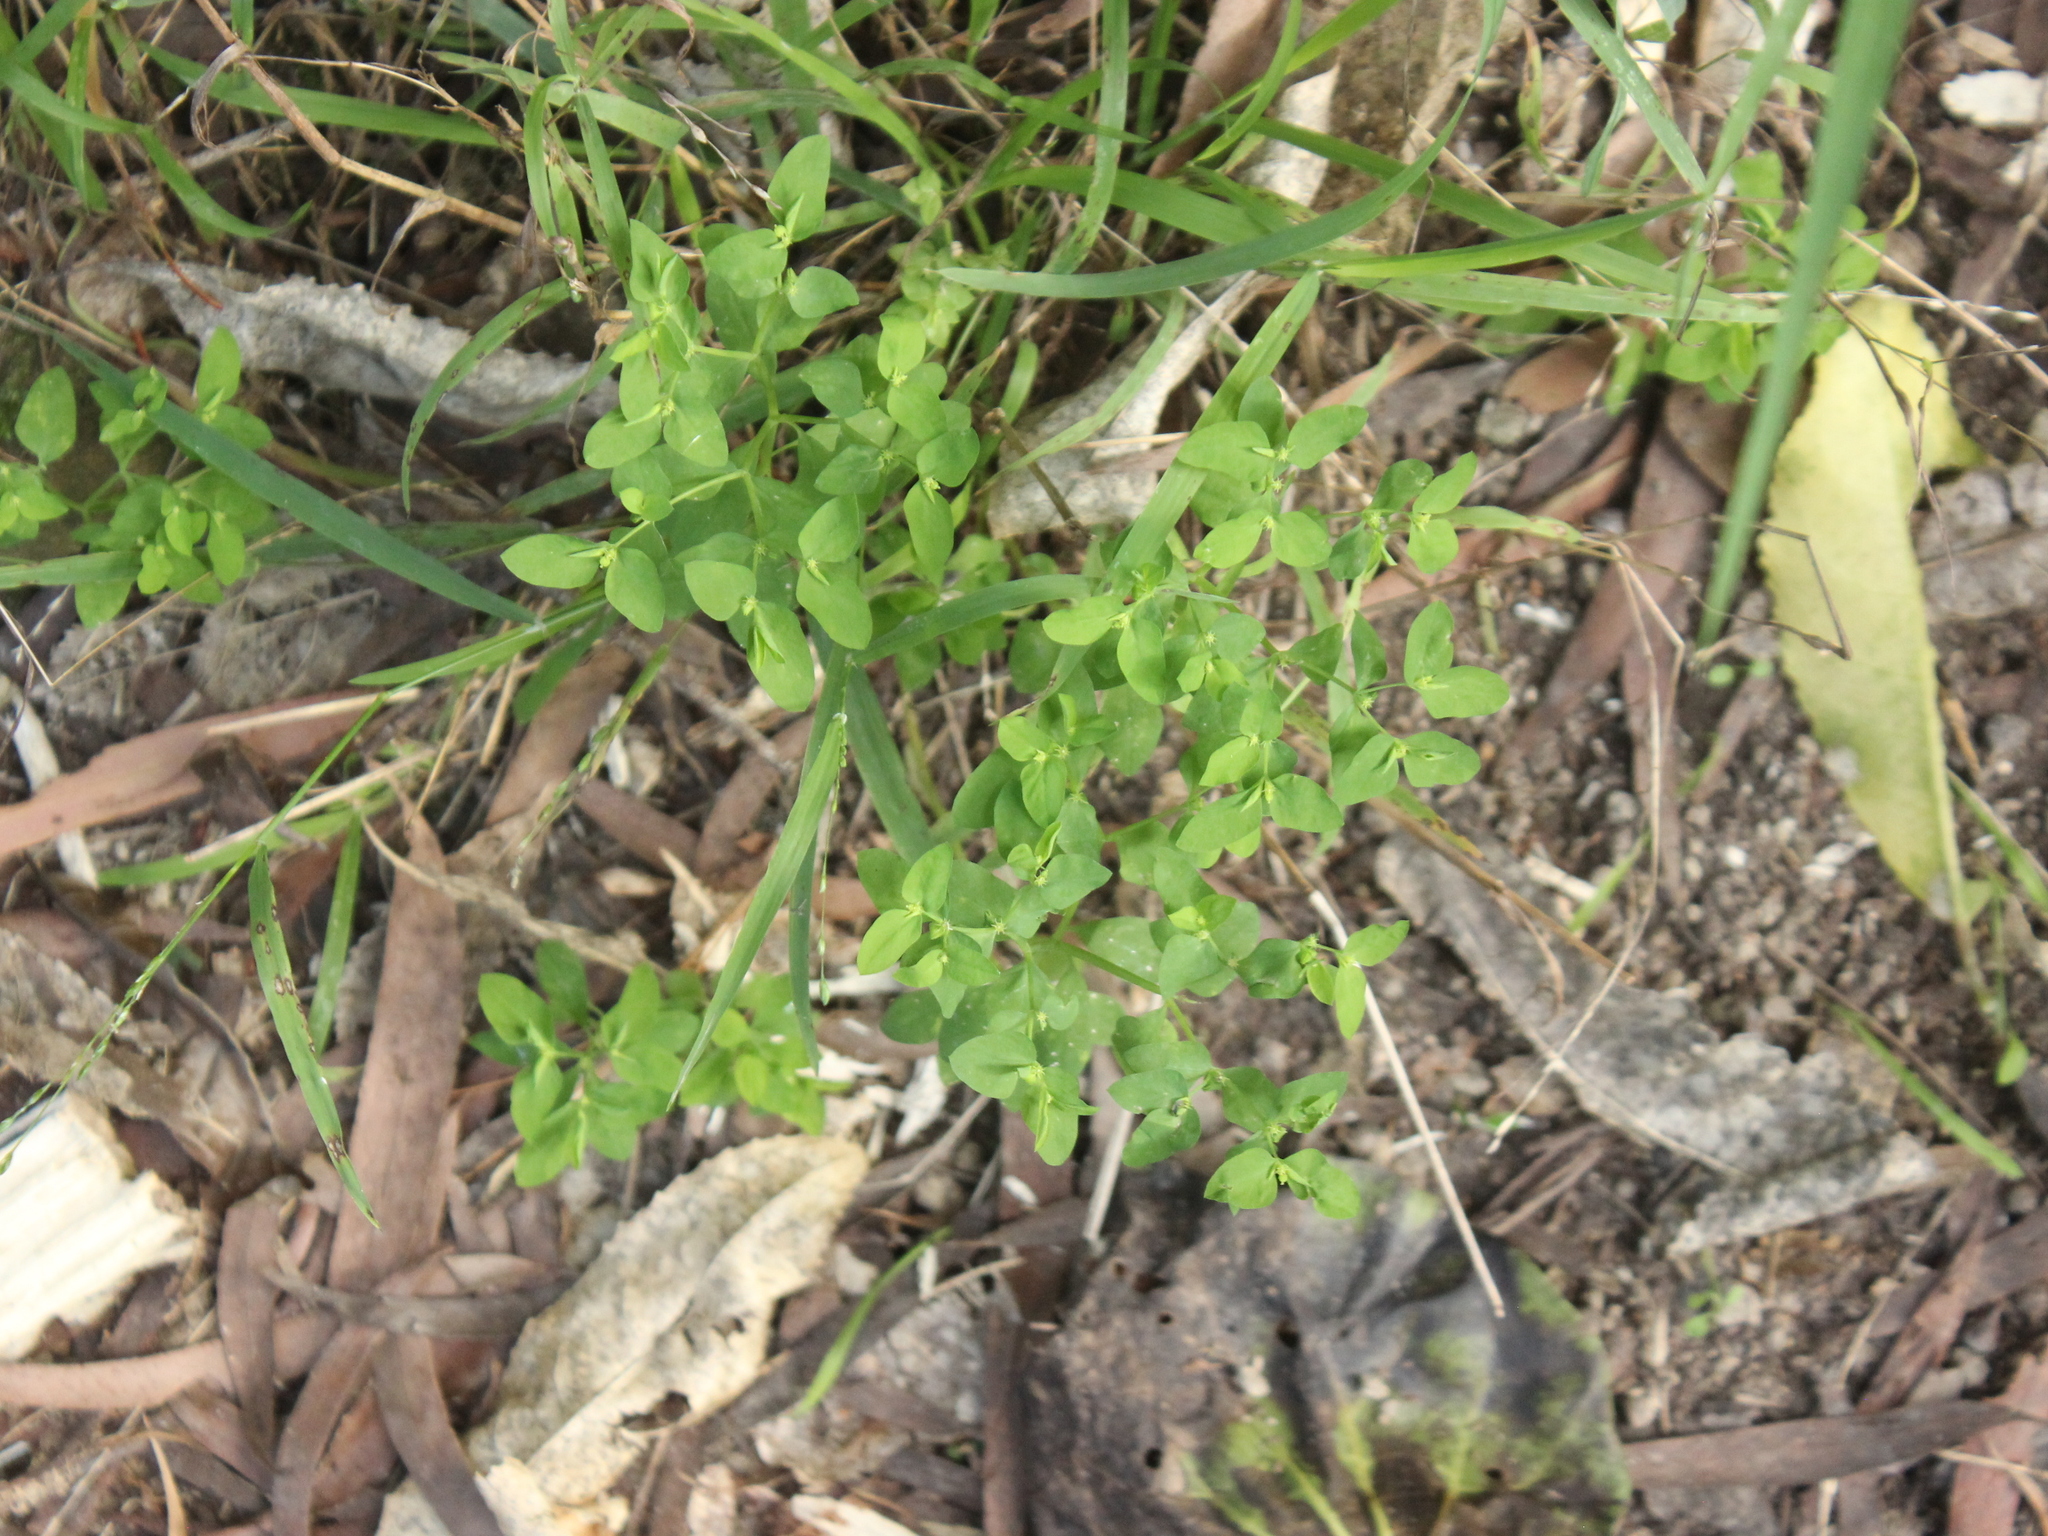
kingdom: Plantae
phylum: Tracheophyta
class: Magnoliopsida
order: Malpighiales
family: Euphorbiaceae
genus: Euphorbia
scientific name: Euphorbia peplus
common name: Petty spurge
